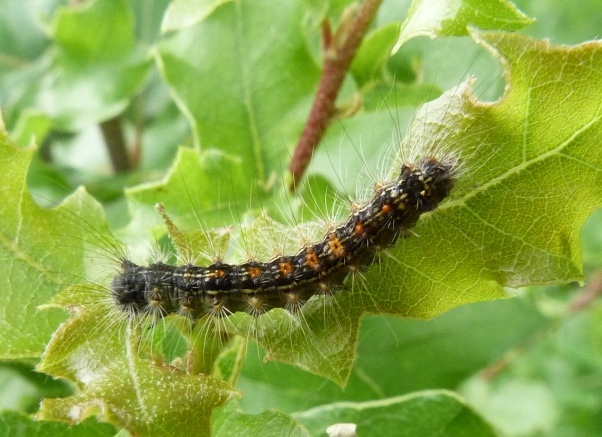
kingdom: Animalia
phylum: Arthropoda
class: Insecta
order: Lepidoptera
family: Erebidae
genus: Lymantria
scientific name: Lymantria dispar
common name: Gypsy moth
